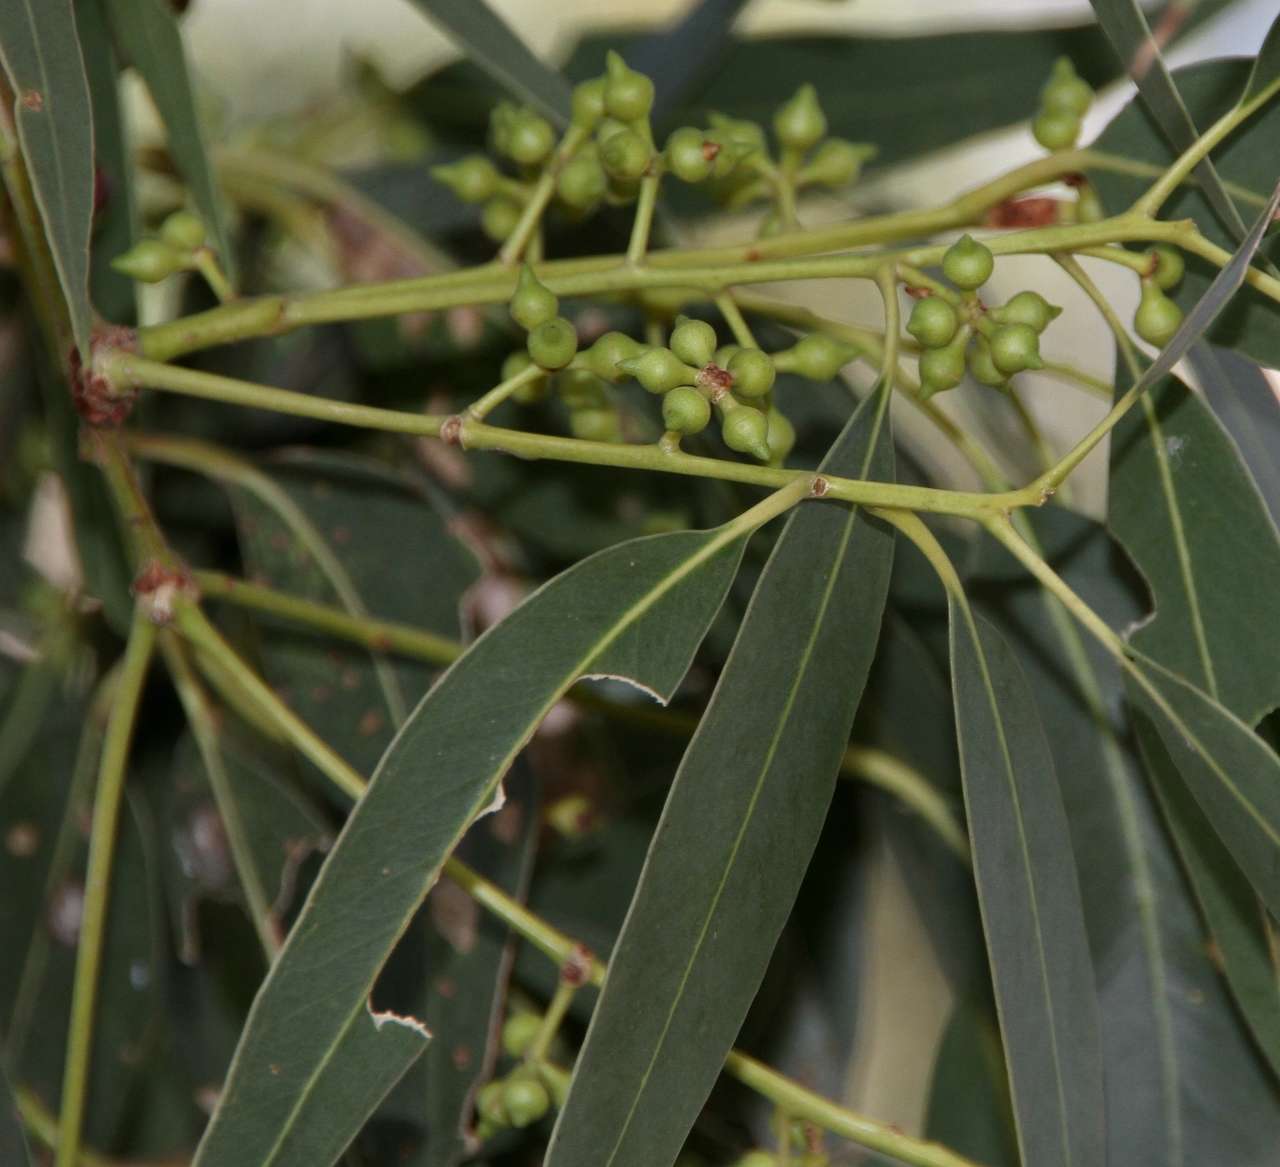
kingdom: Plantae
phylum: Tracheophyta
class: Magnoliopsida
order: Myrtales
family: Myrtaceae
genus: Eucalyptus
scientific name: Eucalyptus camaldulensis
